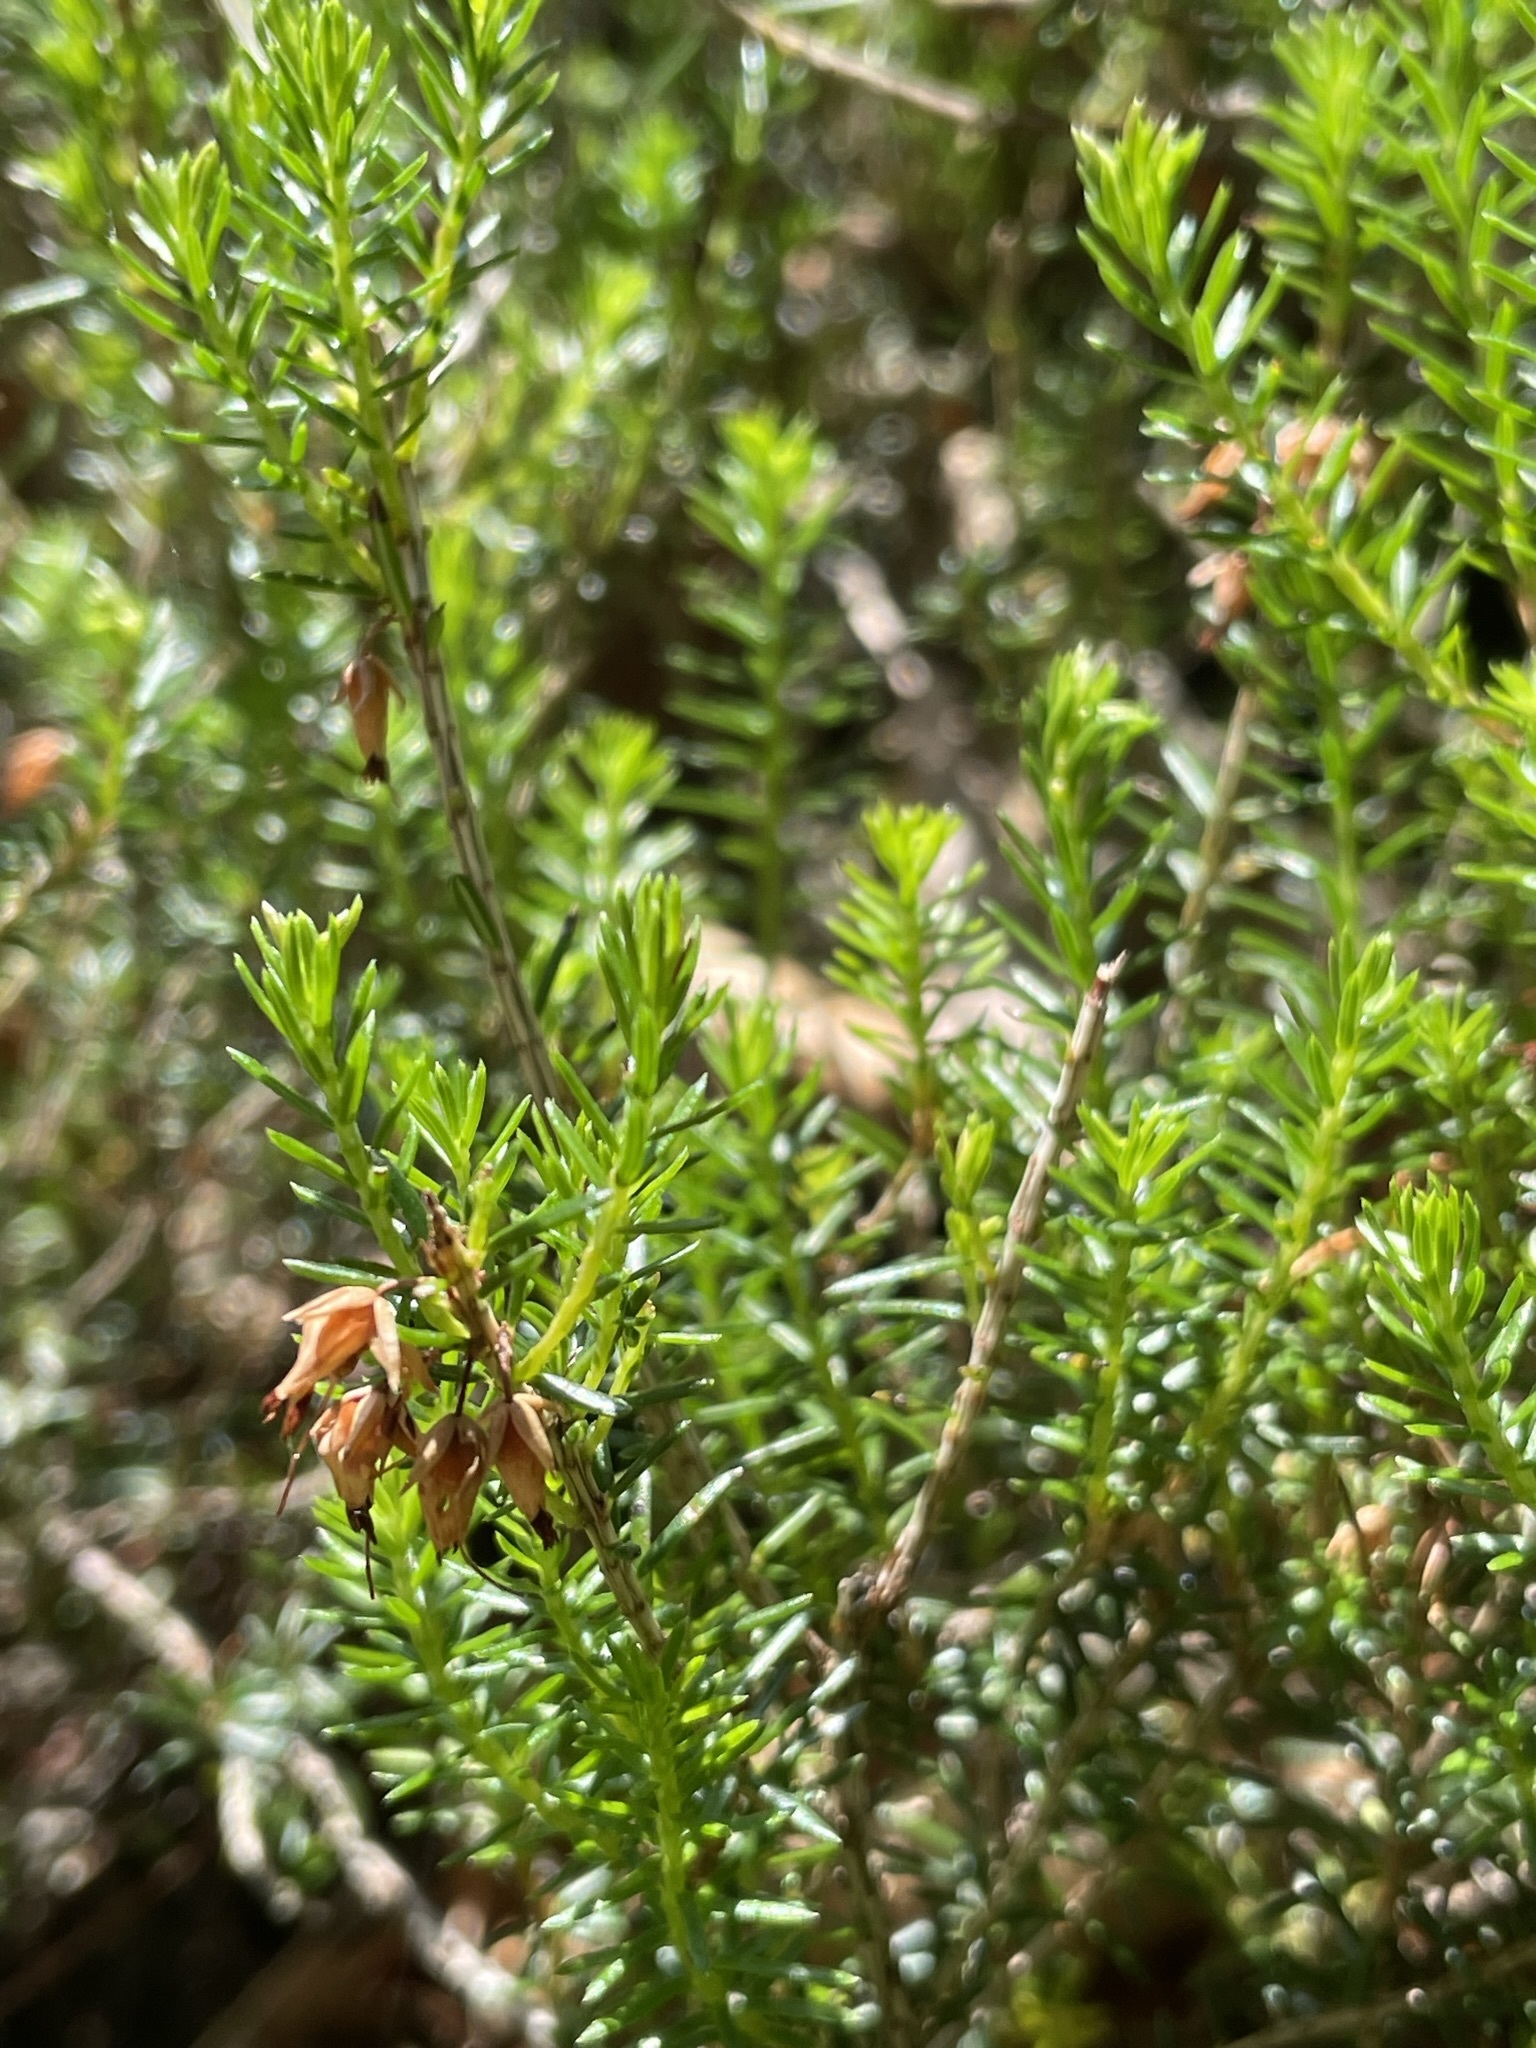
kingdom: Plantae
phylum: Tracheophyta
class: Magnoliopsida
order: Ericales
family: Ericaceae
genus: Erica
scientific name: Erica carnea
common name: Winter heath
